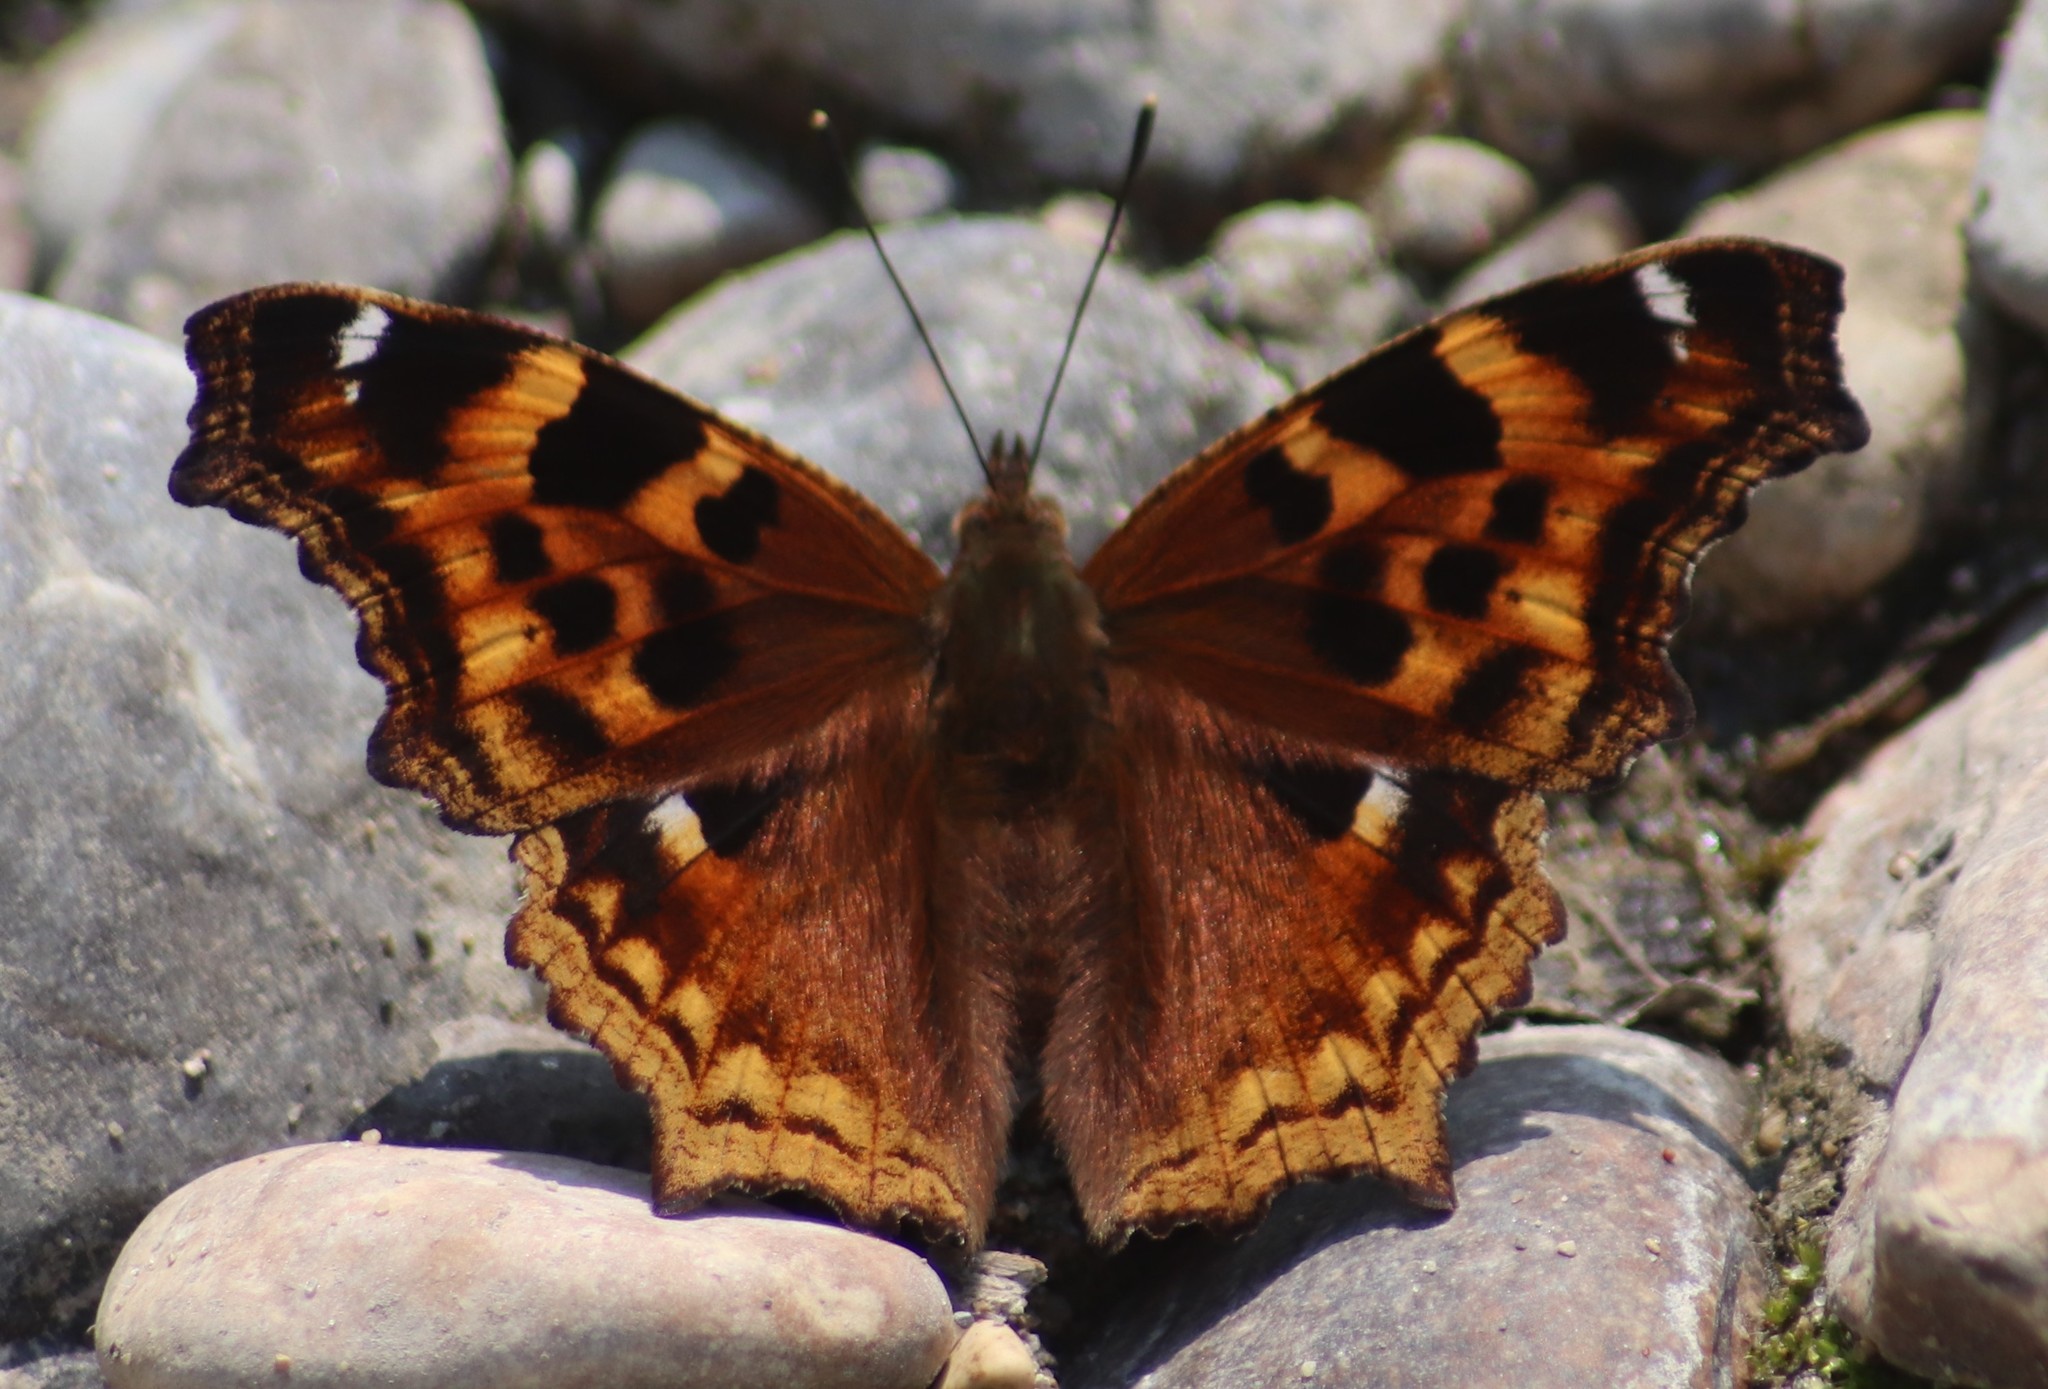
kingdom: Animalia
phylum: Arthropoda
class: Insecta
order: Lepidoptera
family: Nymphalidae
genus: Polygonia
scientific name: Polygonia vaualbum
